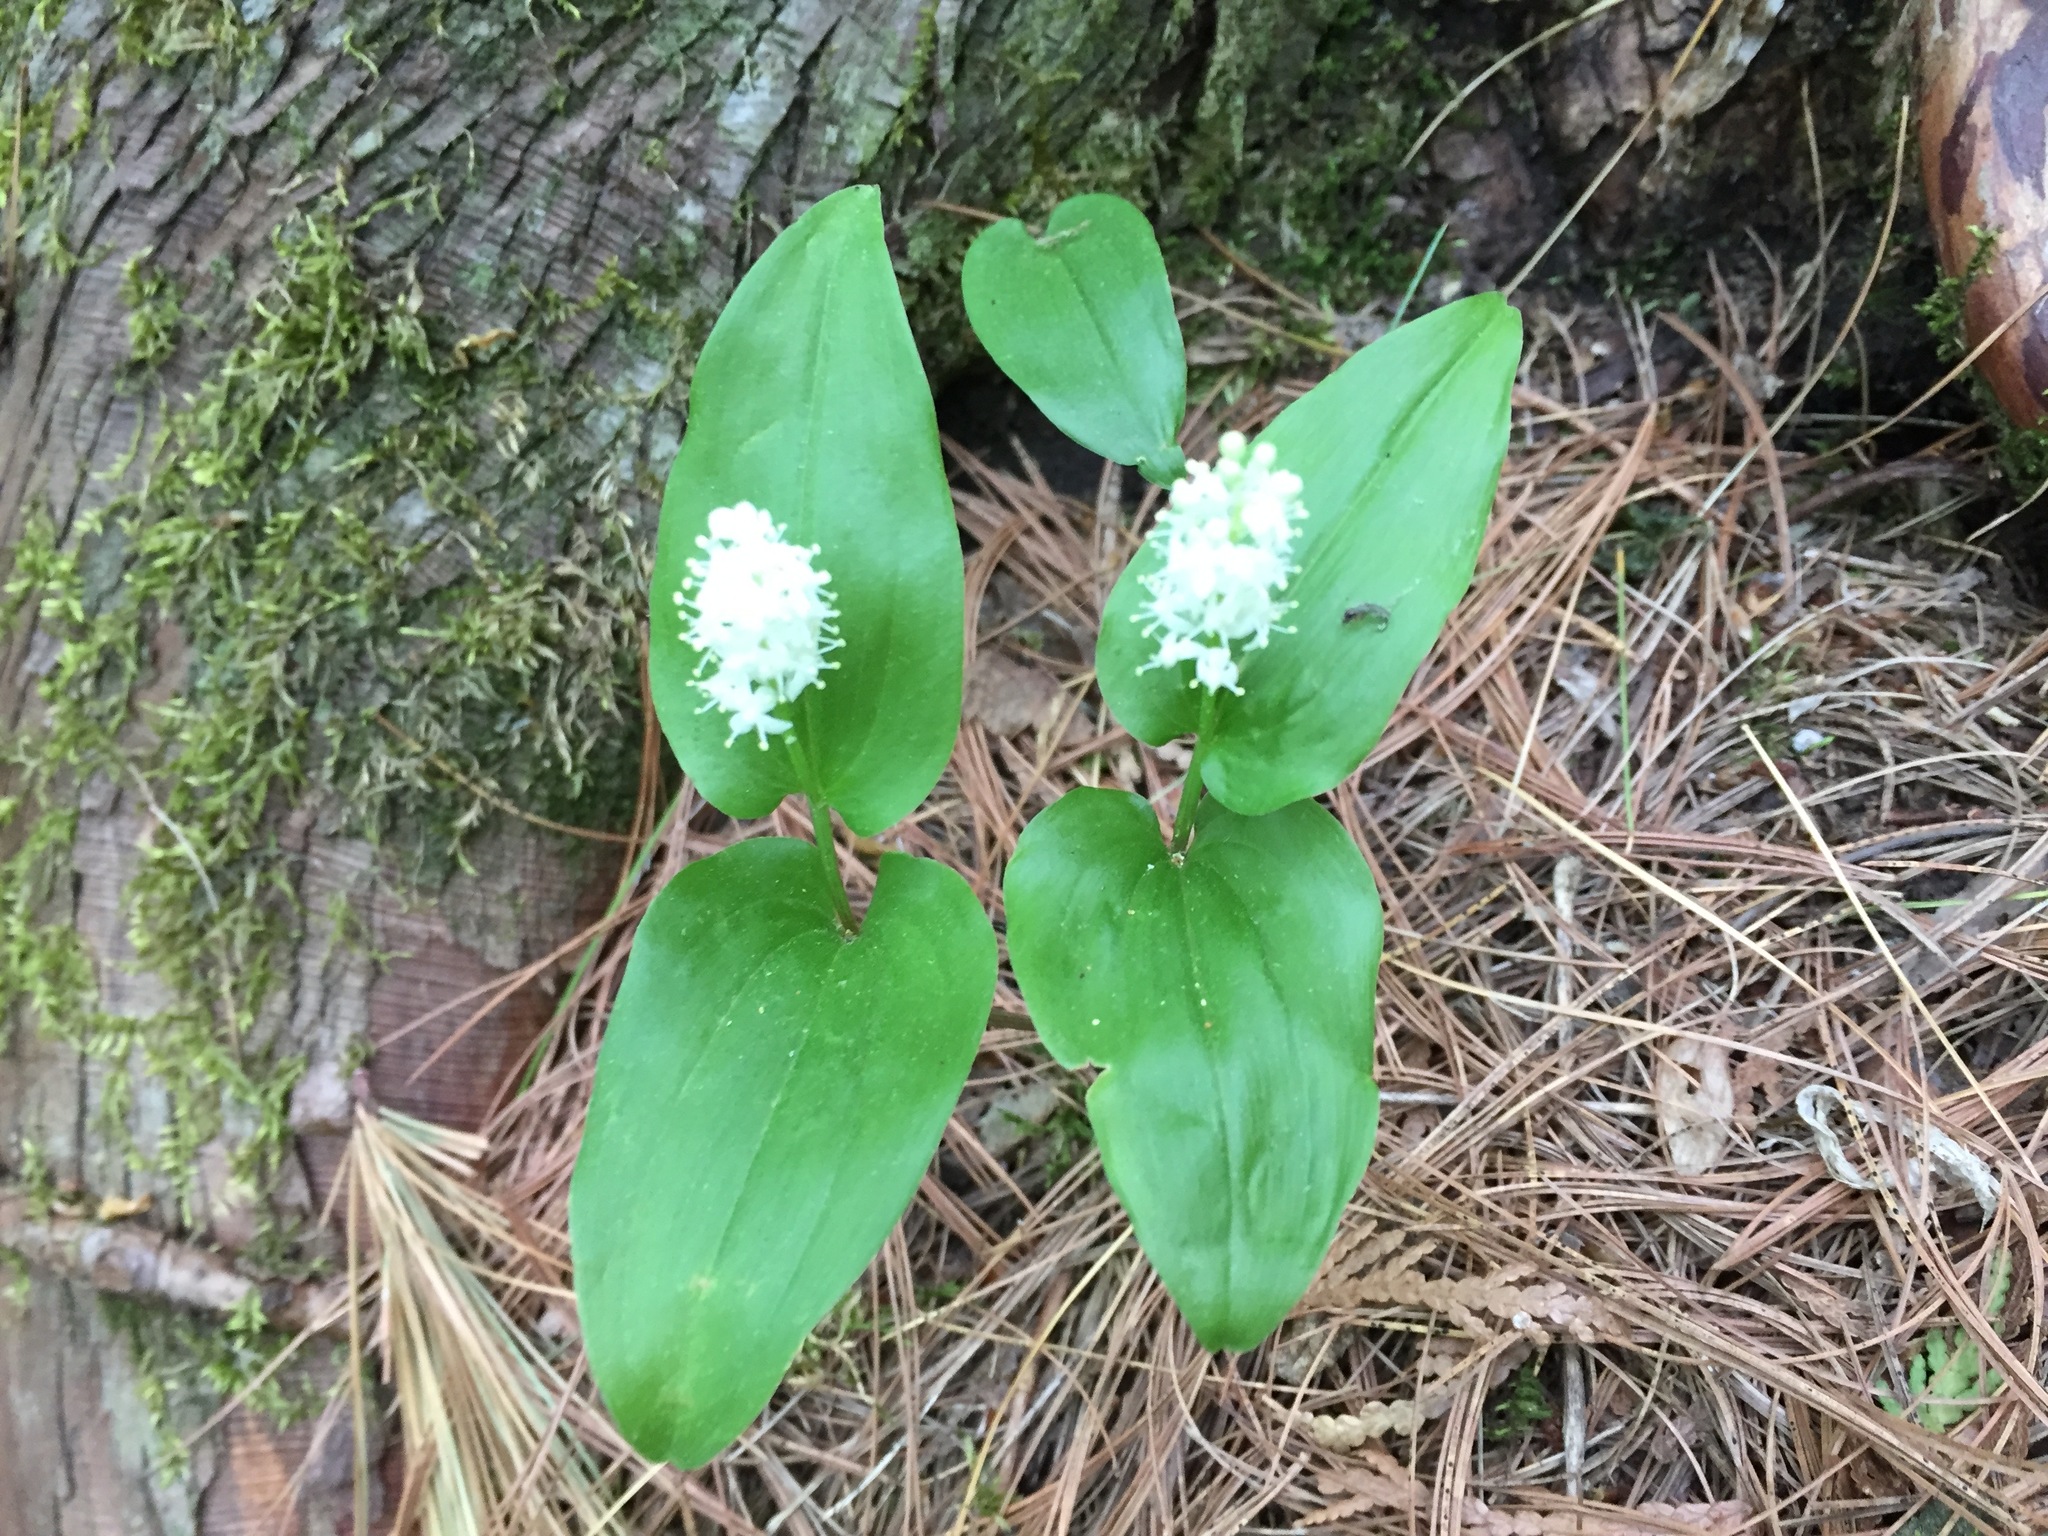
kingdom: Plantae
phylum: Tracheophyta
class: Liliopsida
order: Asparagales
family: Asparagaceae
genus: Maianthemum
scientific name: Maianthemum canadense
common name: False lily-of-the-valley
